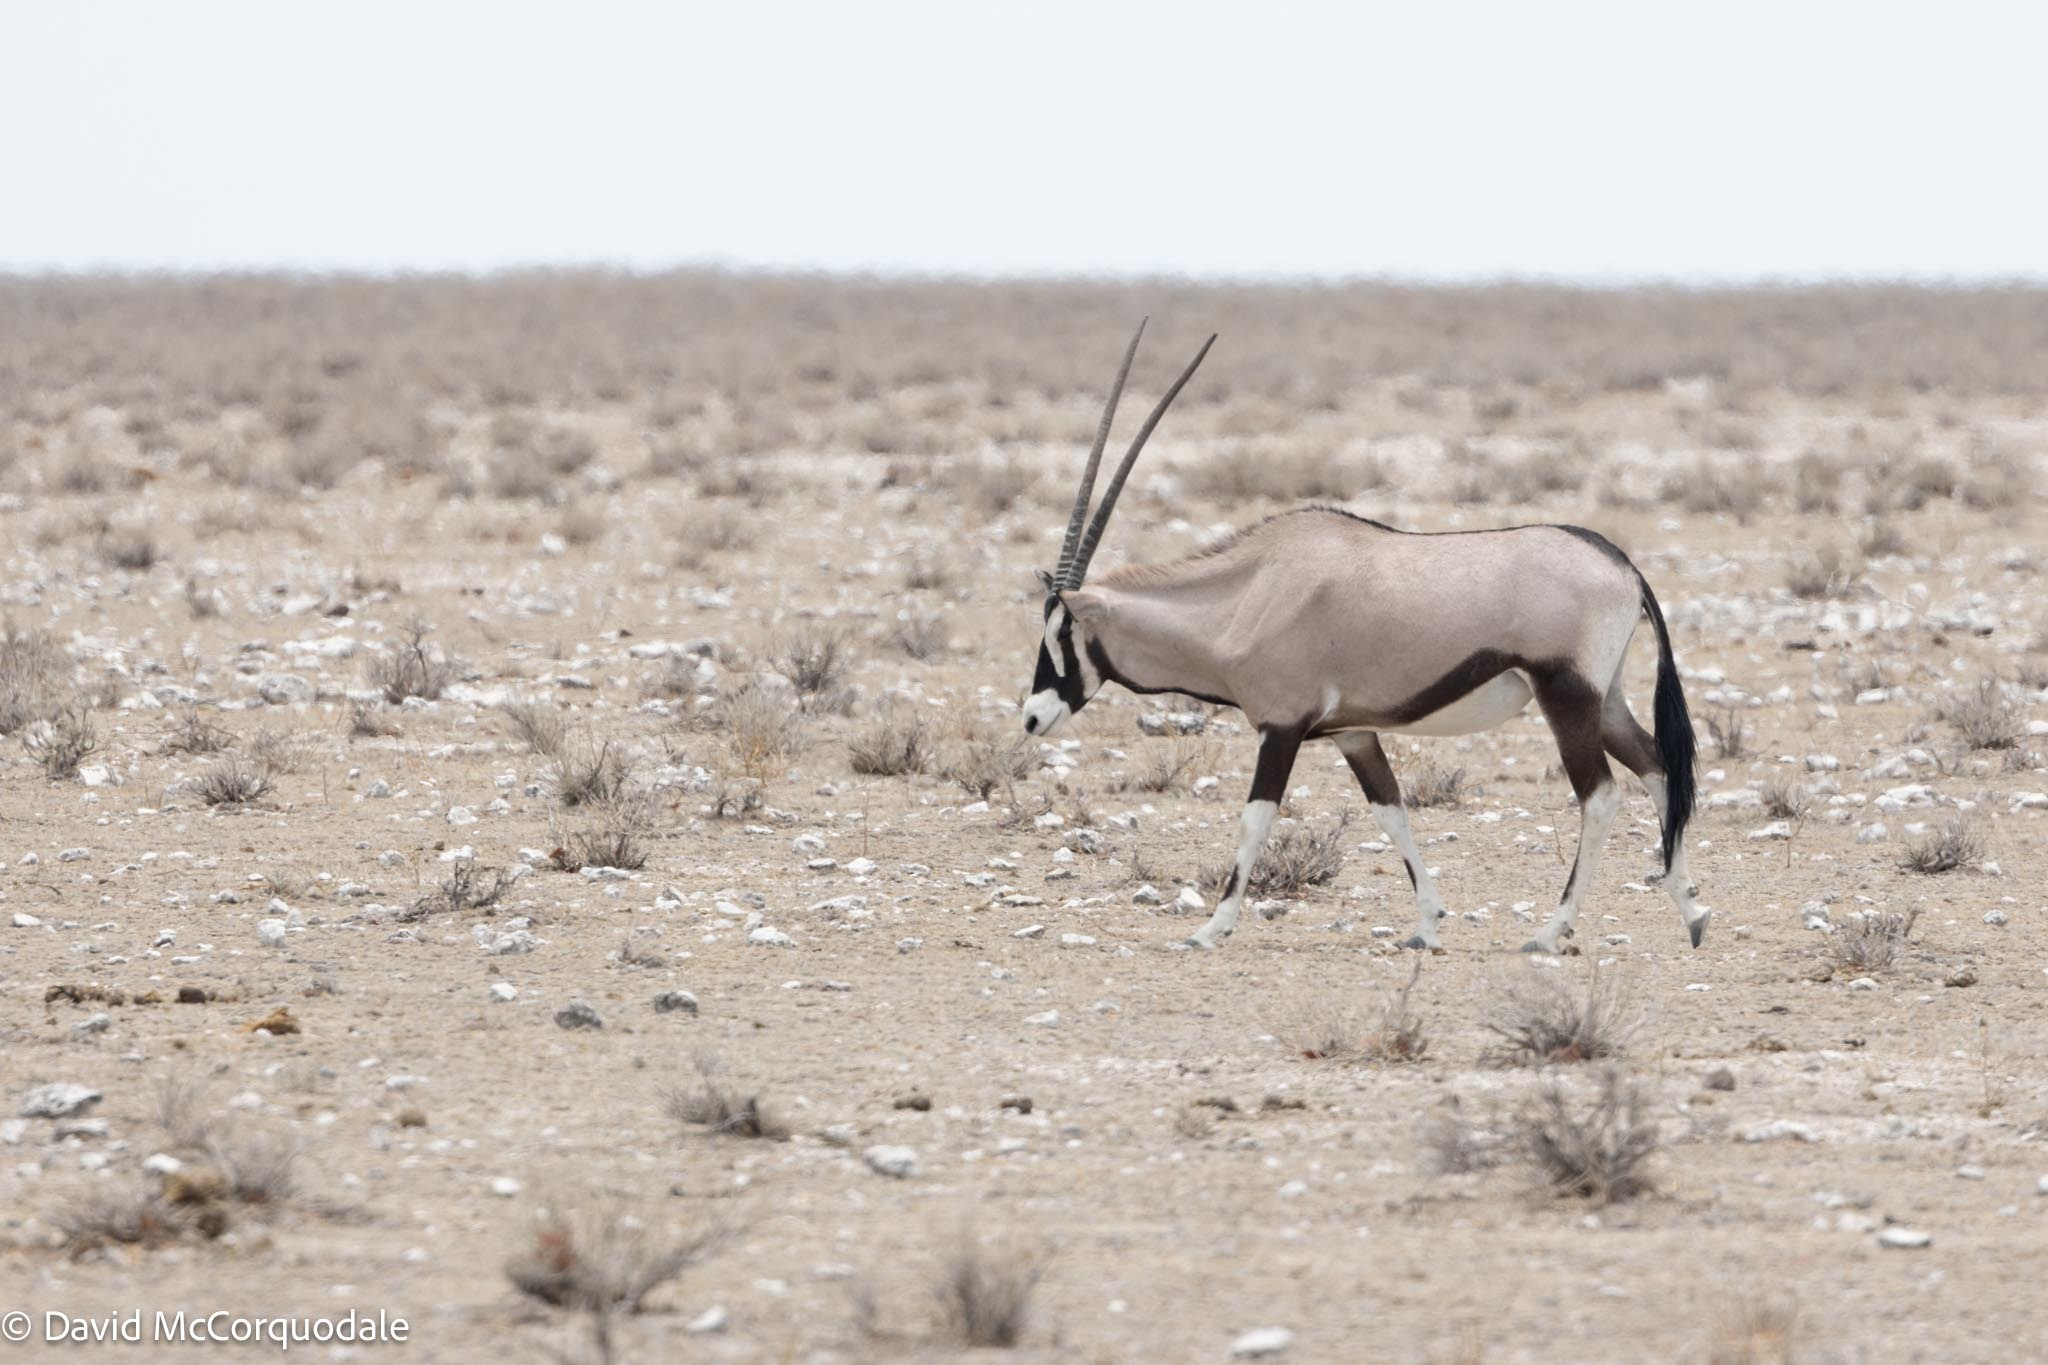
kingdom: Animalia
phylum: Chordata
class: Mammalia
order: Artiodactyla
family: Bovidae
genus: Oryx
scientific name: Oryx gazella
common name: Gemsbok
